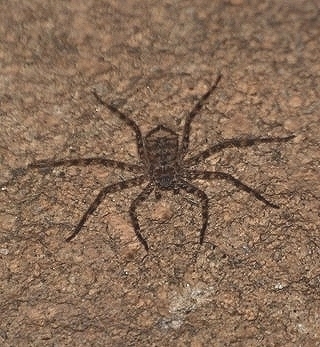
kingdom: Animalia
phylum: Arthropoda
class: Arachnida
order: Araneae
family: Selenopidae
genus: Selenops
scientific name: Selenops
